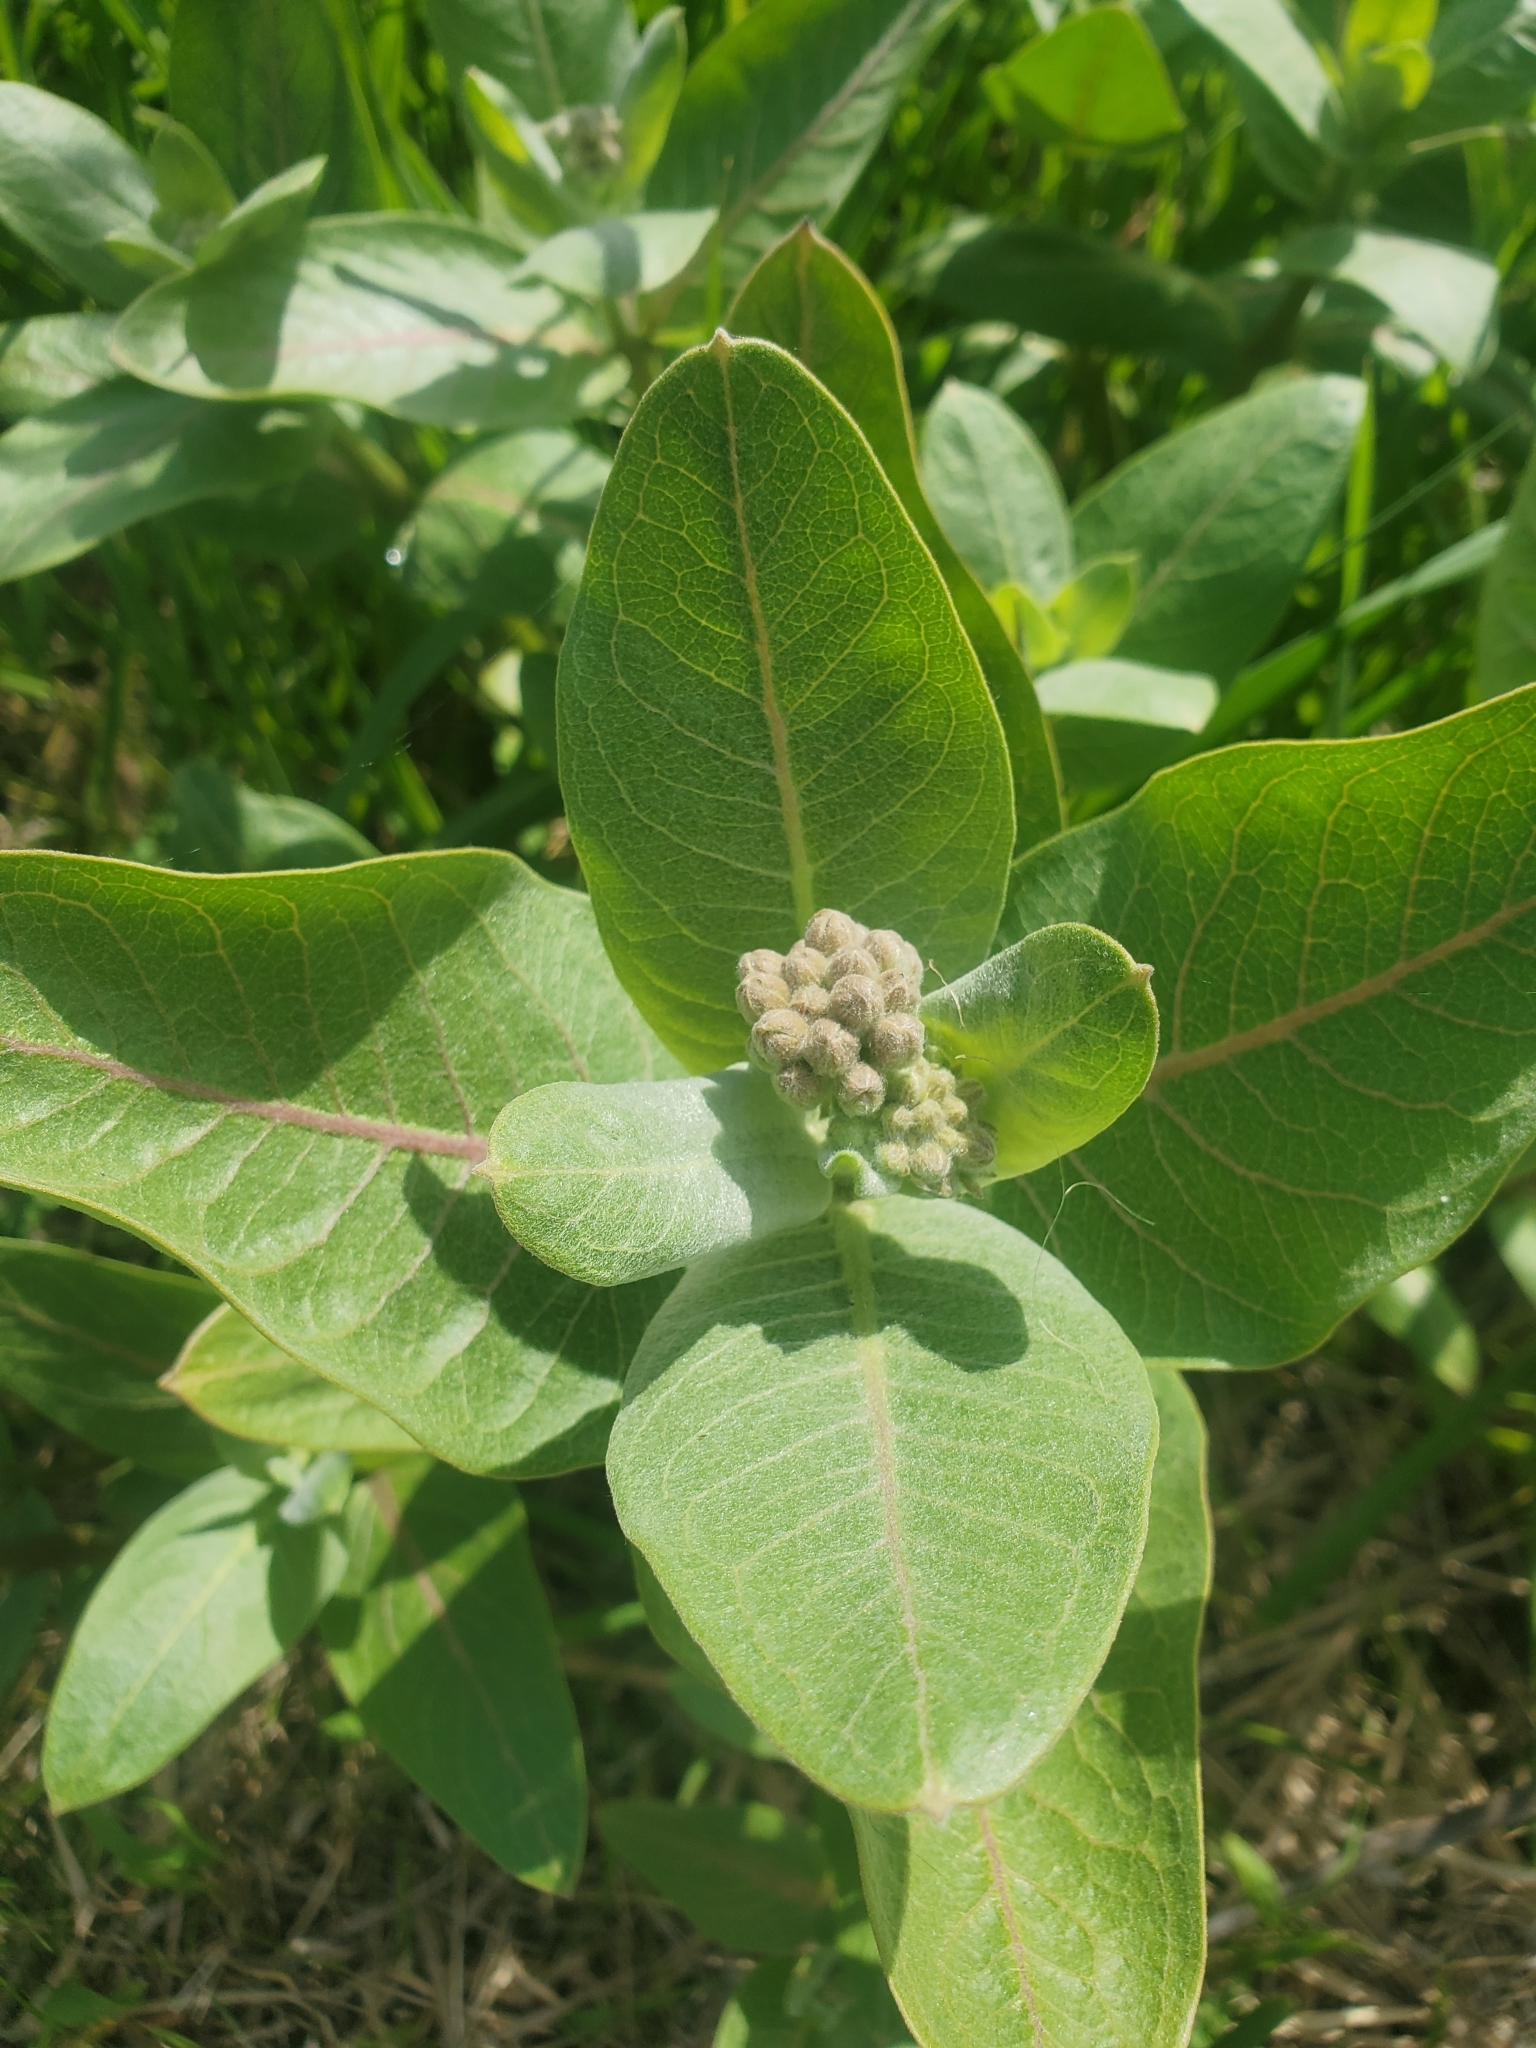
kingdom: Plantae
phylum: Tracheophyta
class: Magnoliopsida
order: Gentianales
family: Apocynaceae
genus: Asclepias
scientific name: Asclepias speciosa
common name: Showy milkweed
